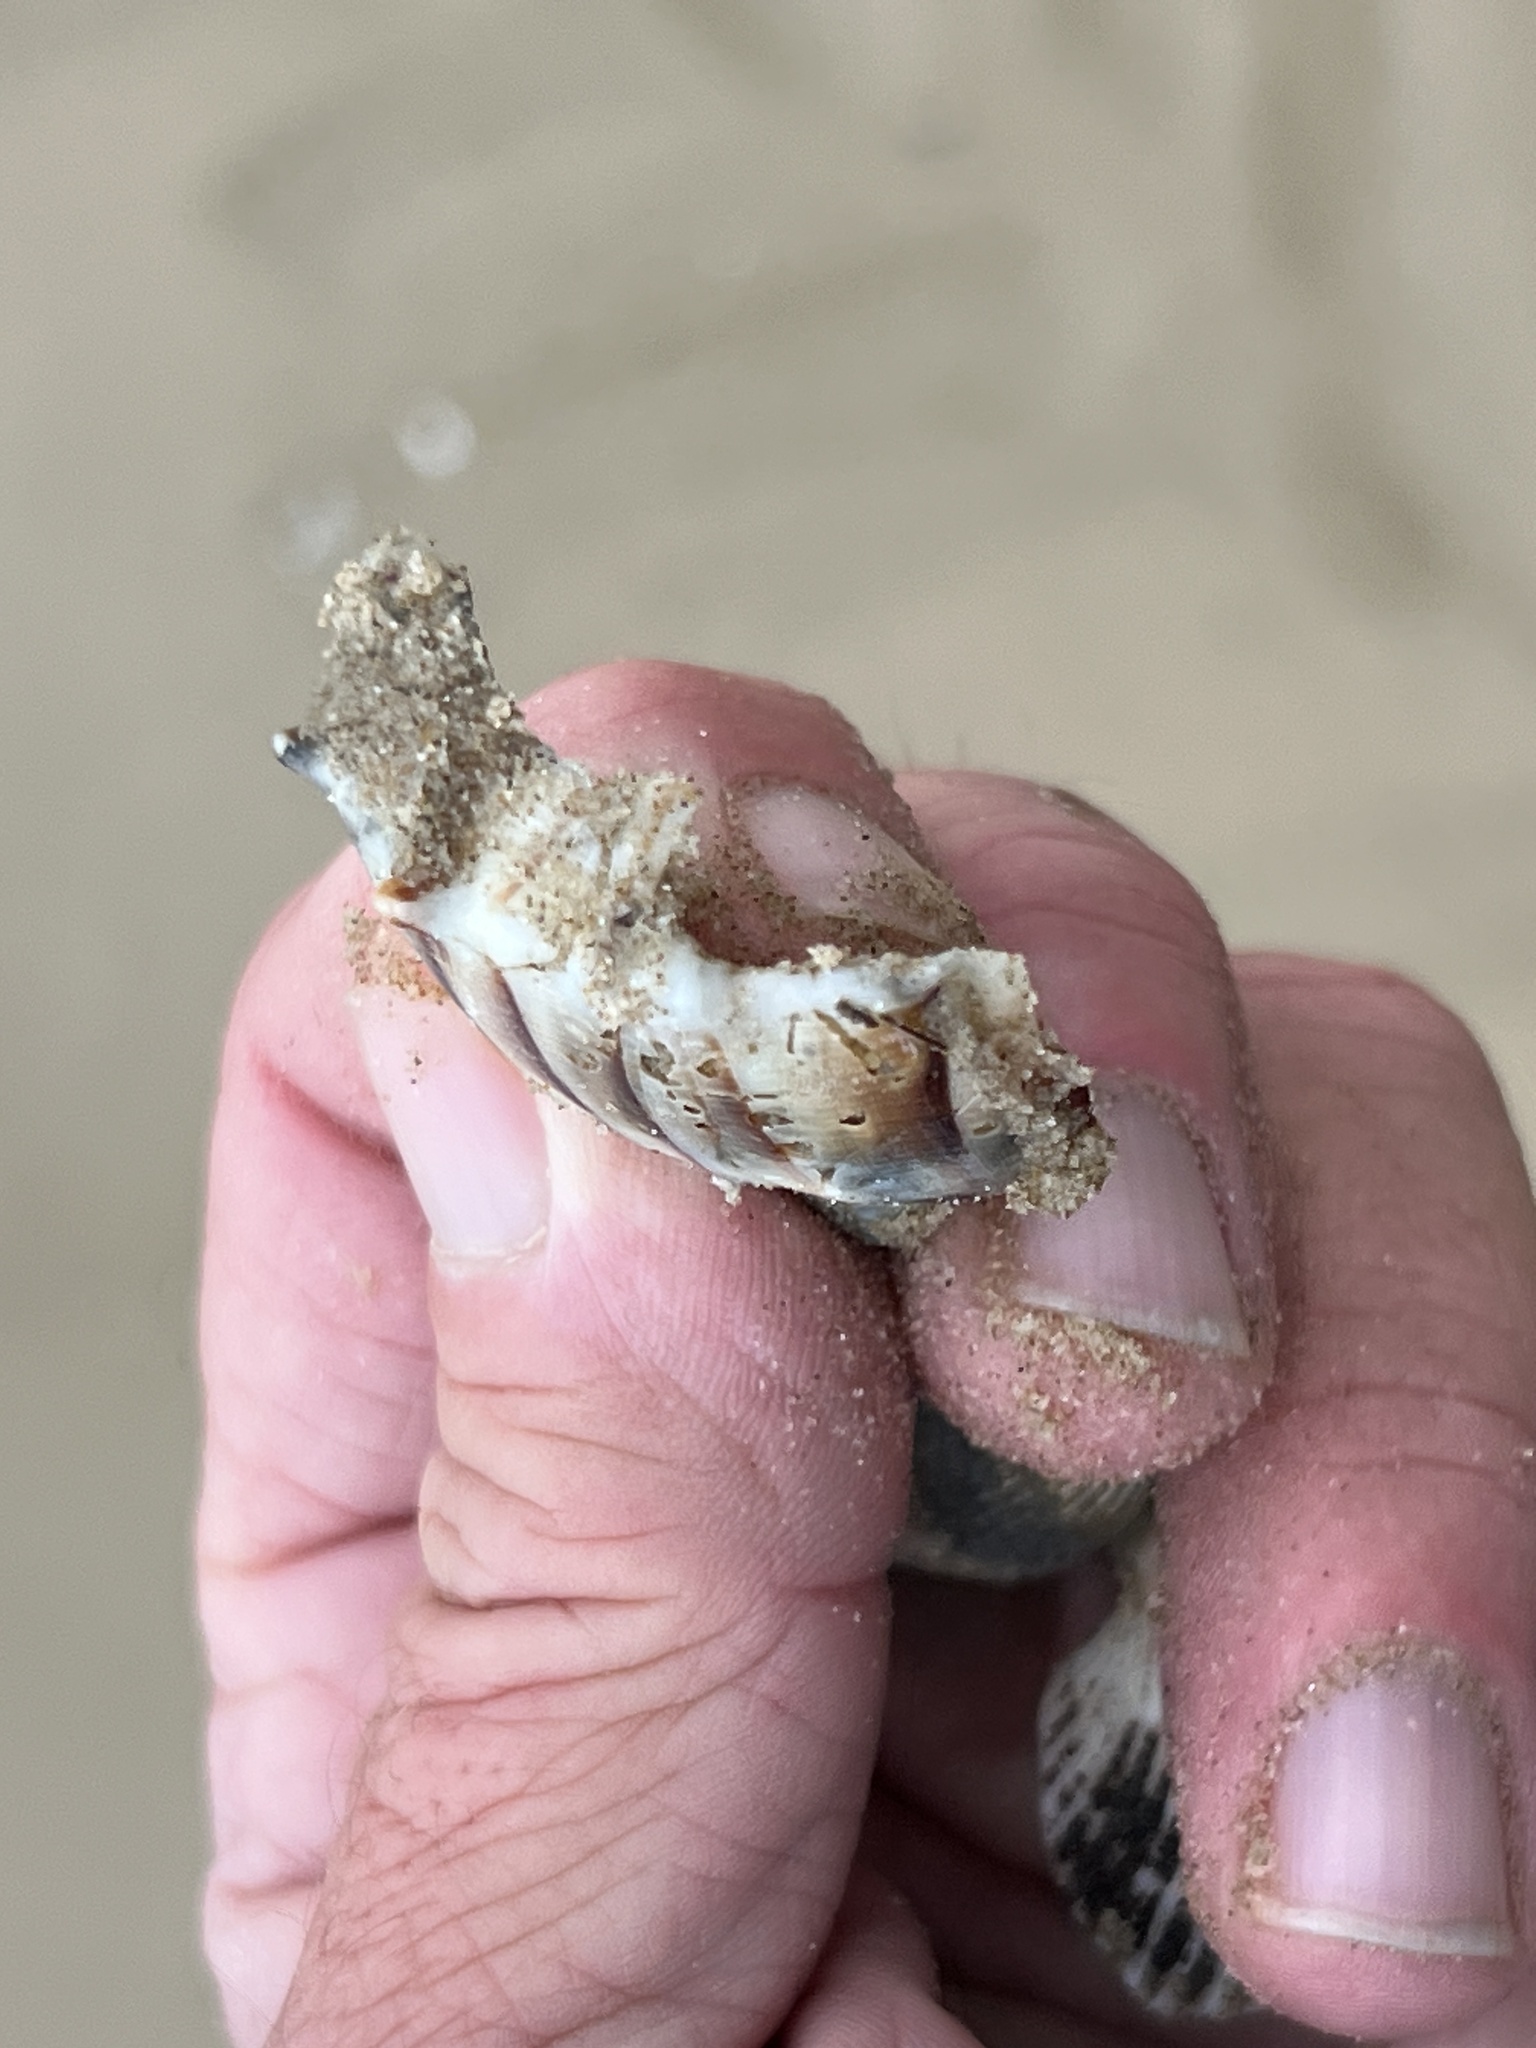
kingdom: Animalia
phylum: Mollusca
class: Gastropoda
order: Neogastropoda
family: Busyconidae
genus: Sinistrofulgur
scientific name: Sinistrofulgur pulleyi
